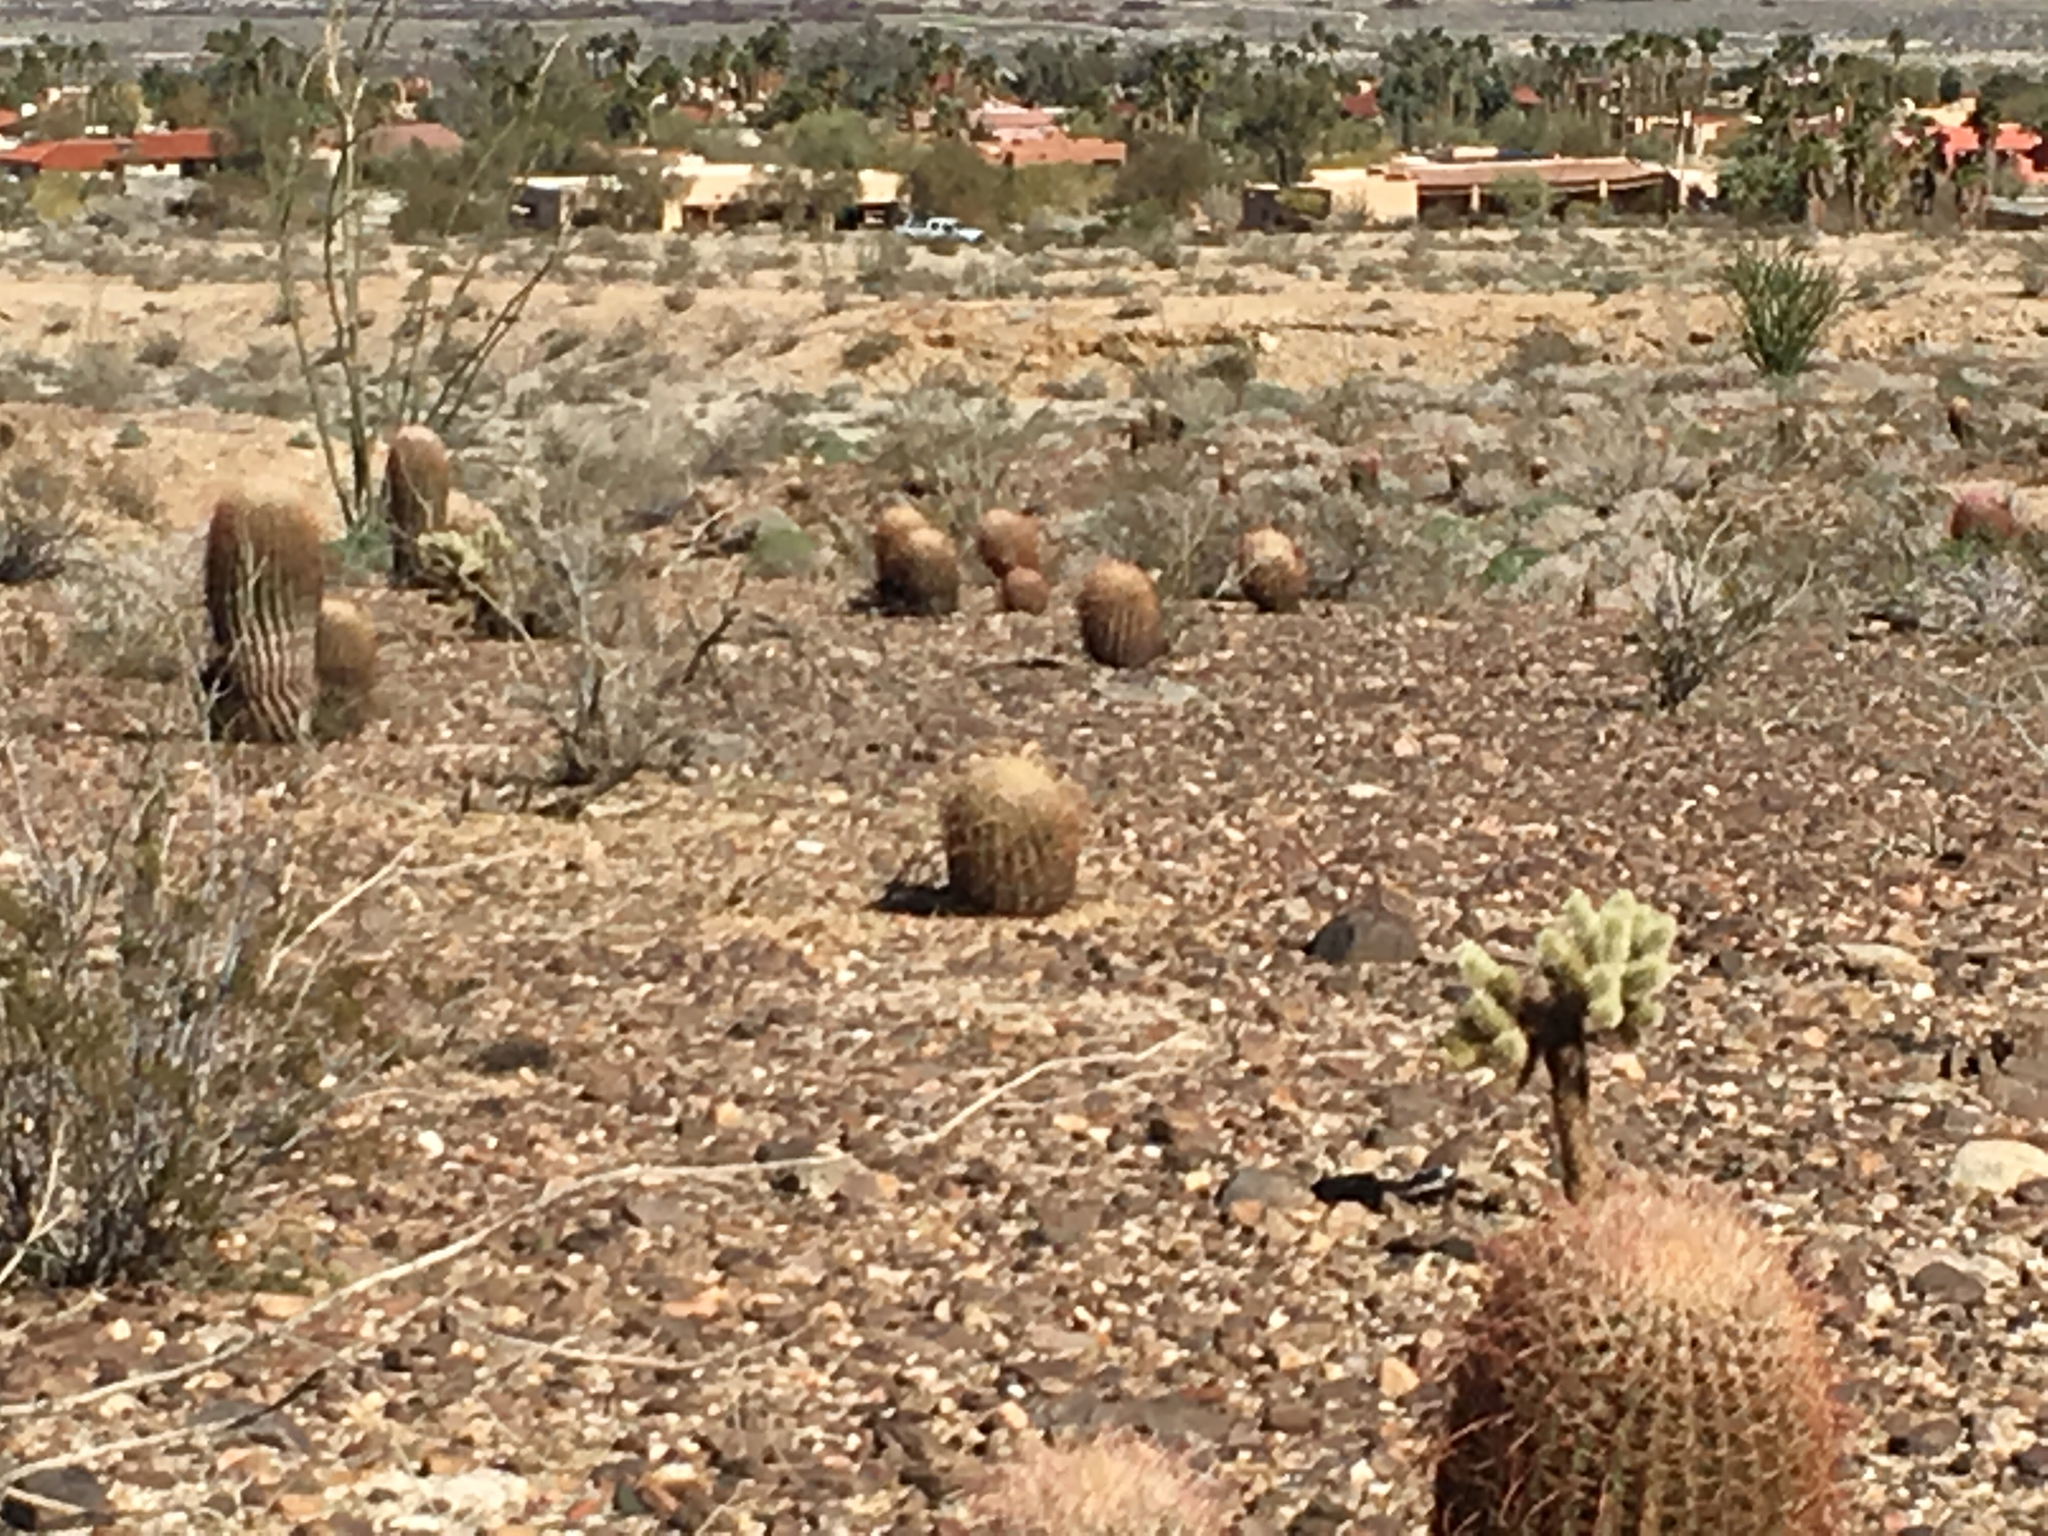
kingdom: Plantae
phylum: Tracheophyta
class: Magnoliopsida
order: Caryophyllales
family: Cactaceae
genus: Ferocactus
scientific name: Ferocactus cylindraceus
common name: California barrel cactus
